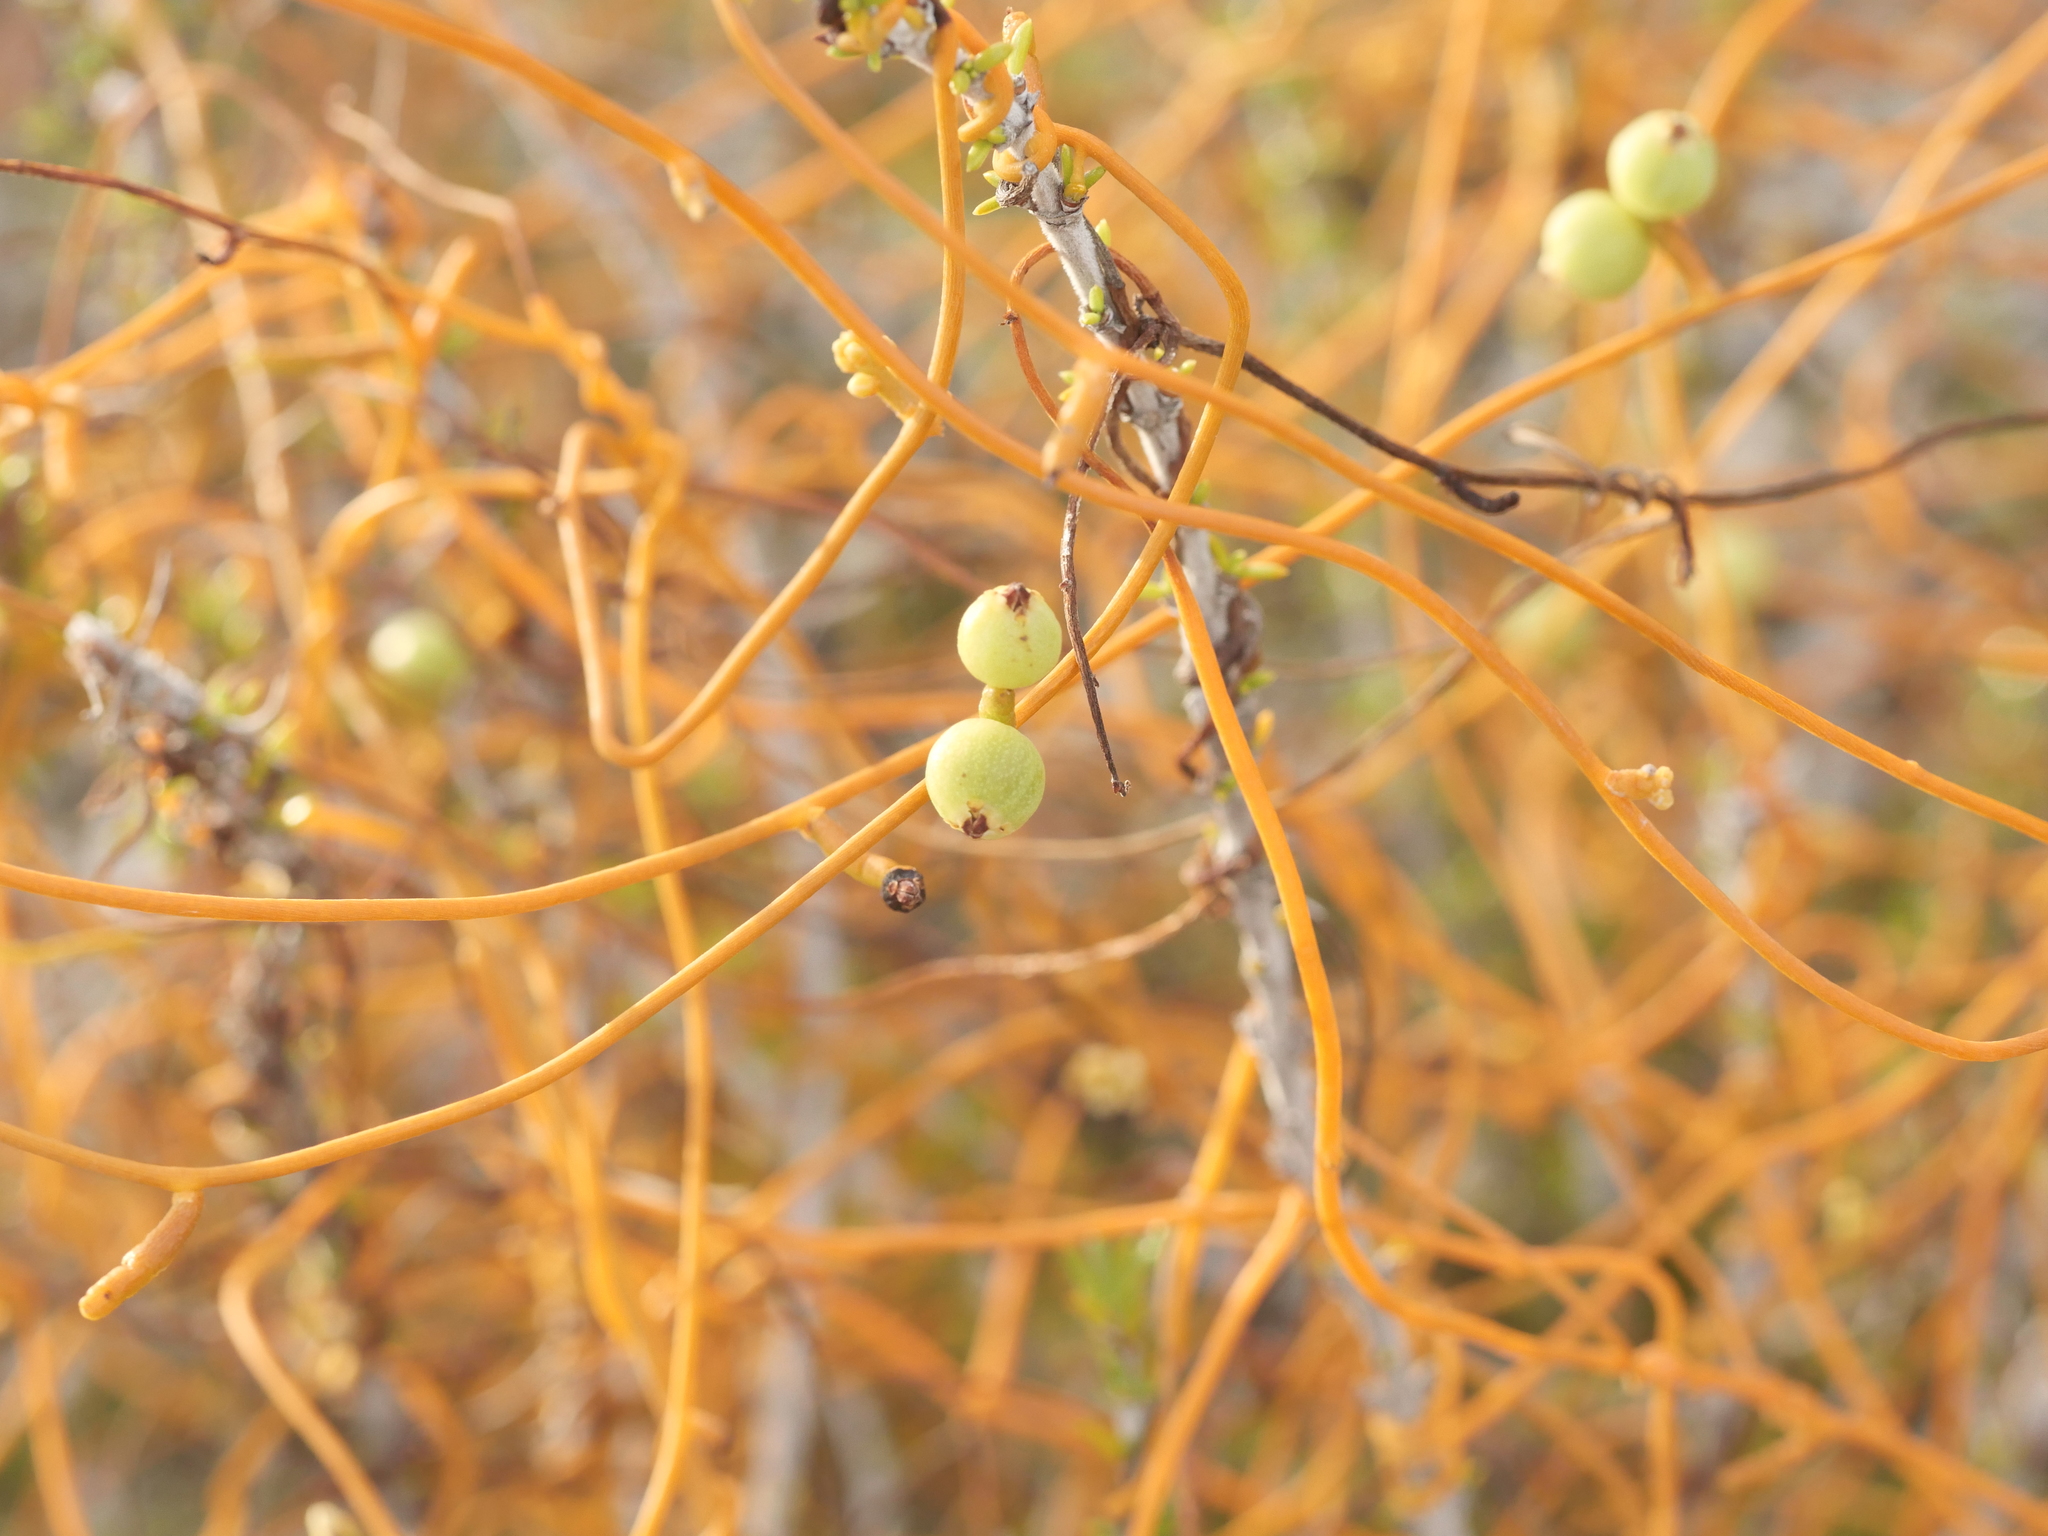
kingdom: Plantae
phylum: Tracheophyta
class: Magnoliopsida
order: Laurales
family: Lauraceae
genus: Cassytha
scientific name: Cassytha filiformis
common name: Dodder-laurel
